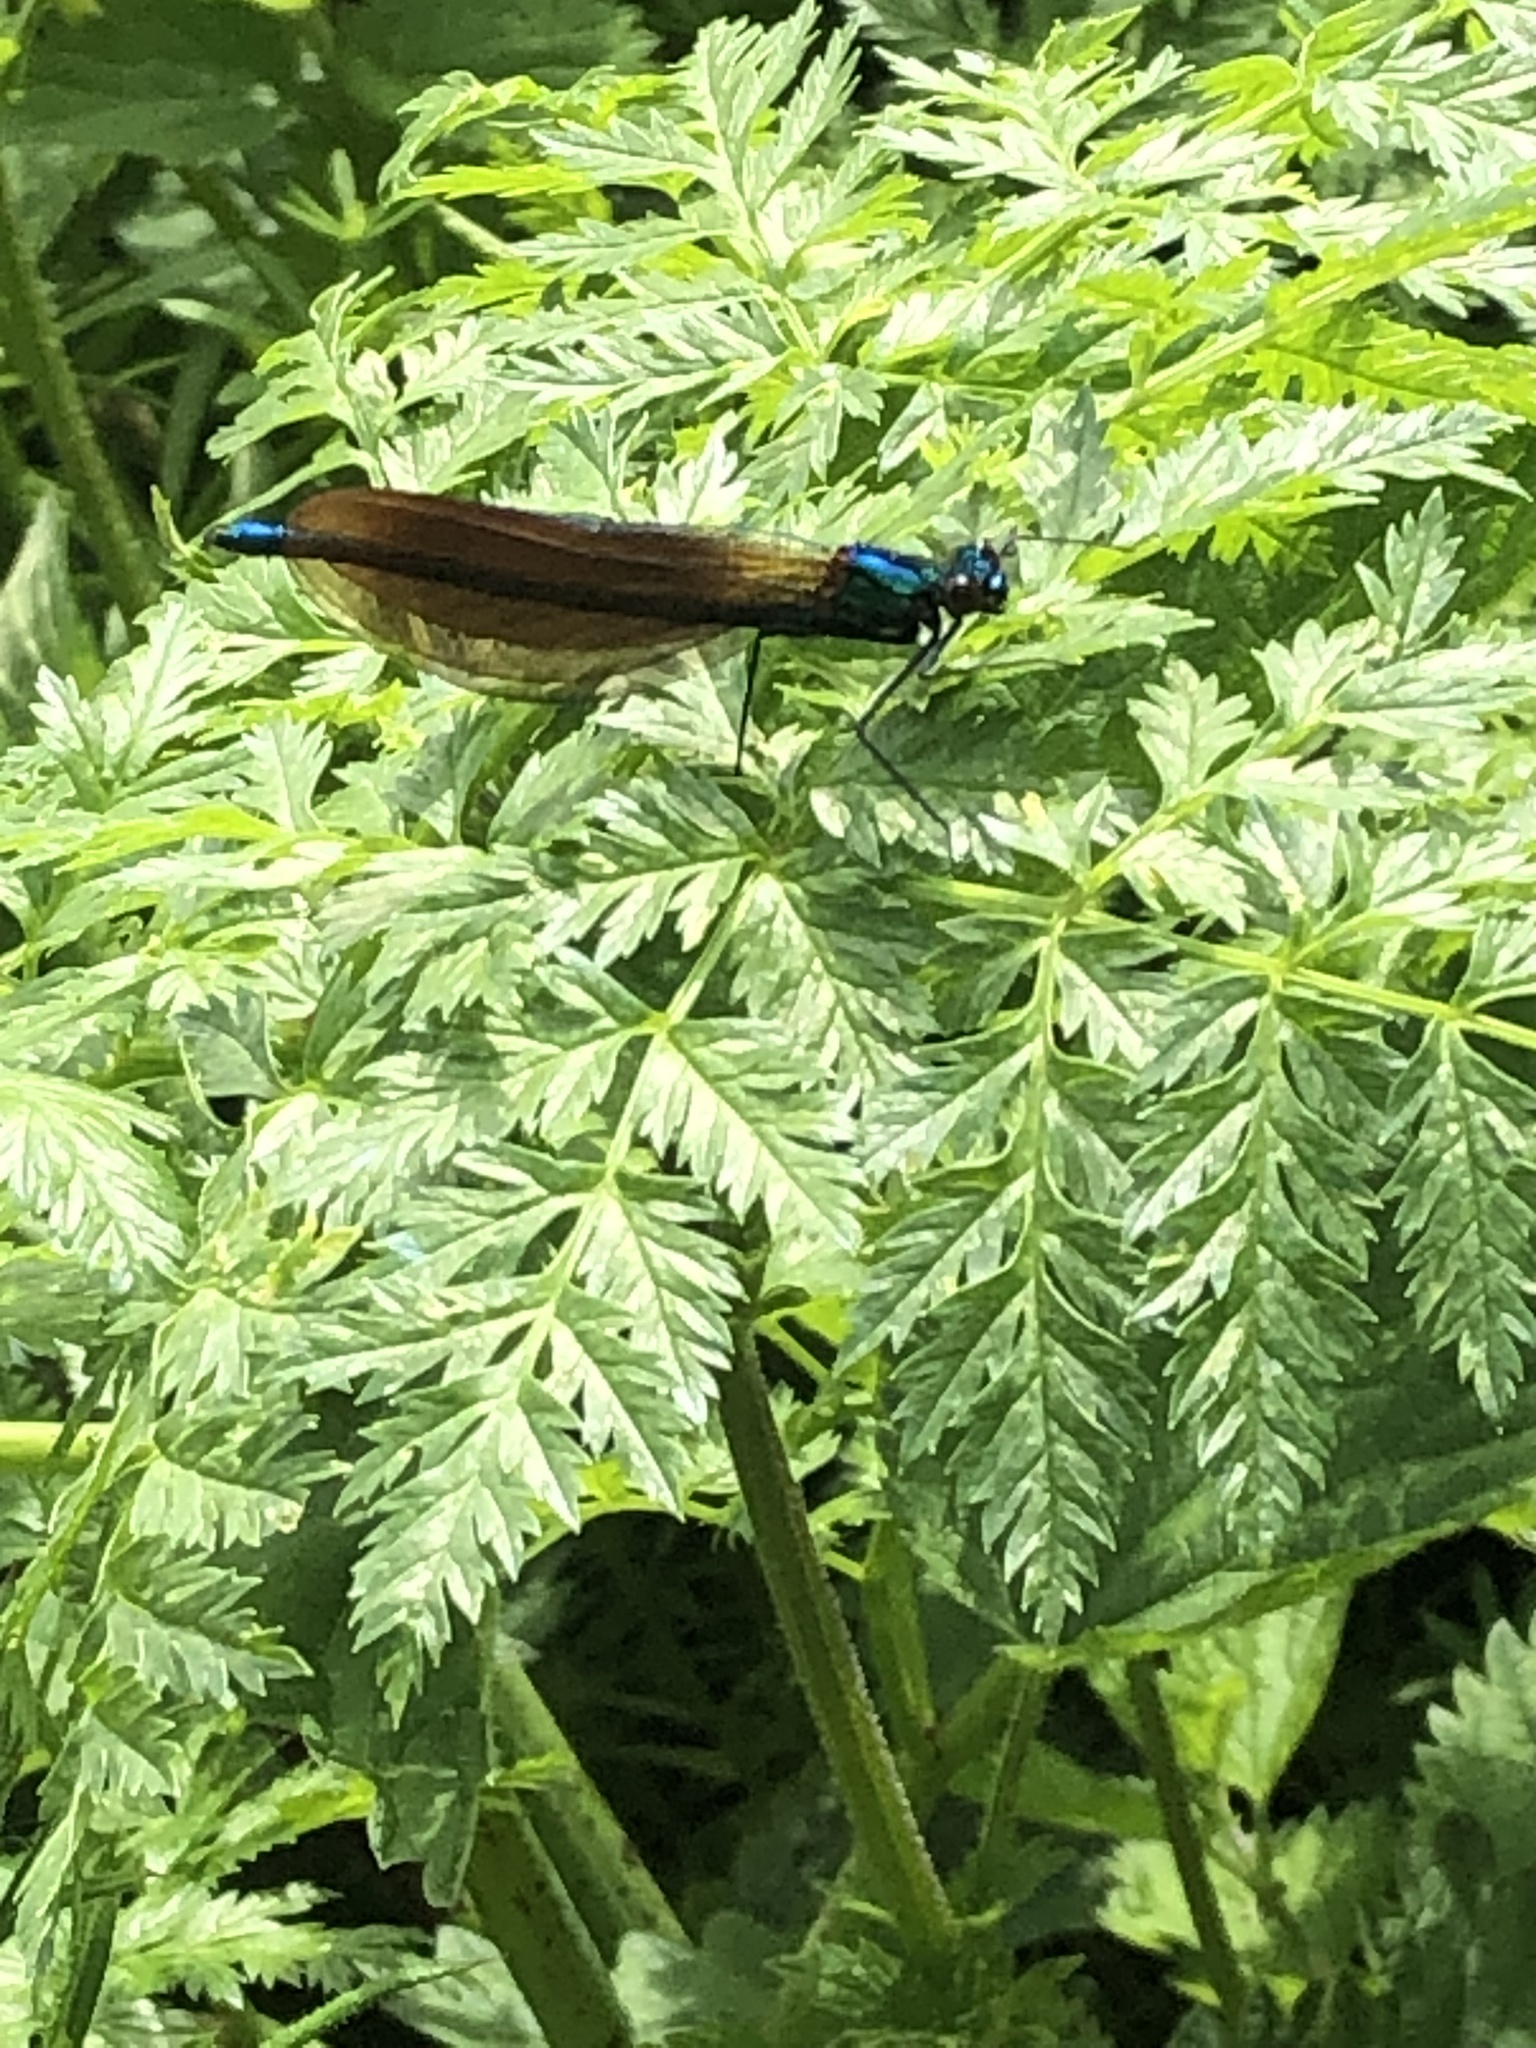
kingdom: Animalia
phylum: Arthropoda
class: Insecta
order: Odonata
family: Calopterygidae
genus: Calopteryx
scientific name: Calopteryx virgo
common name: Beautiful demoiselle
